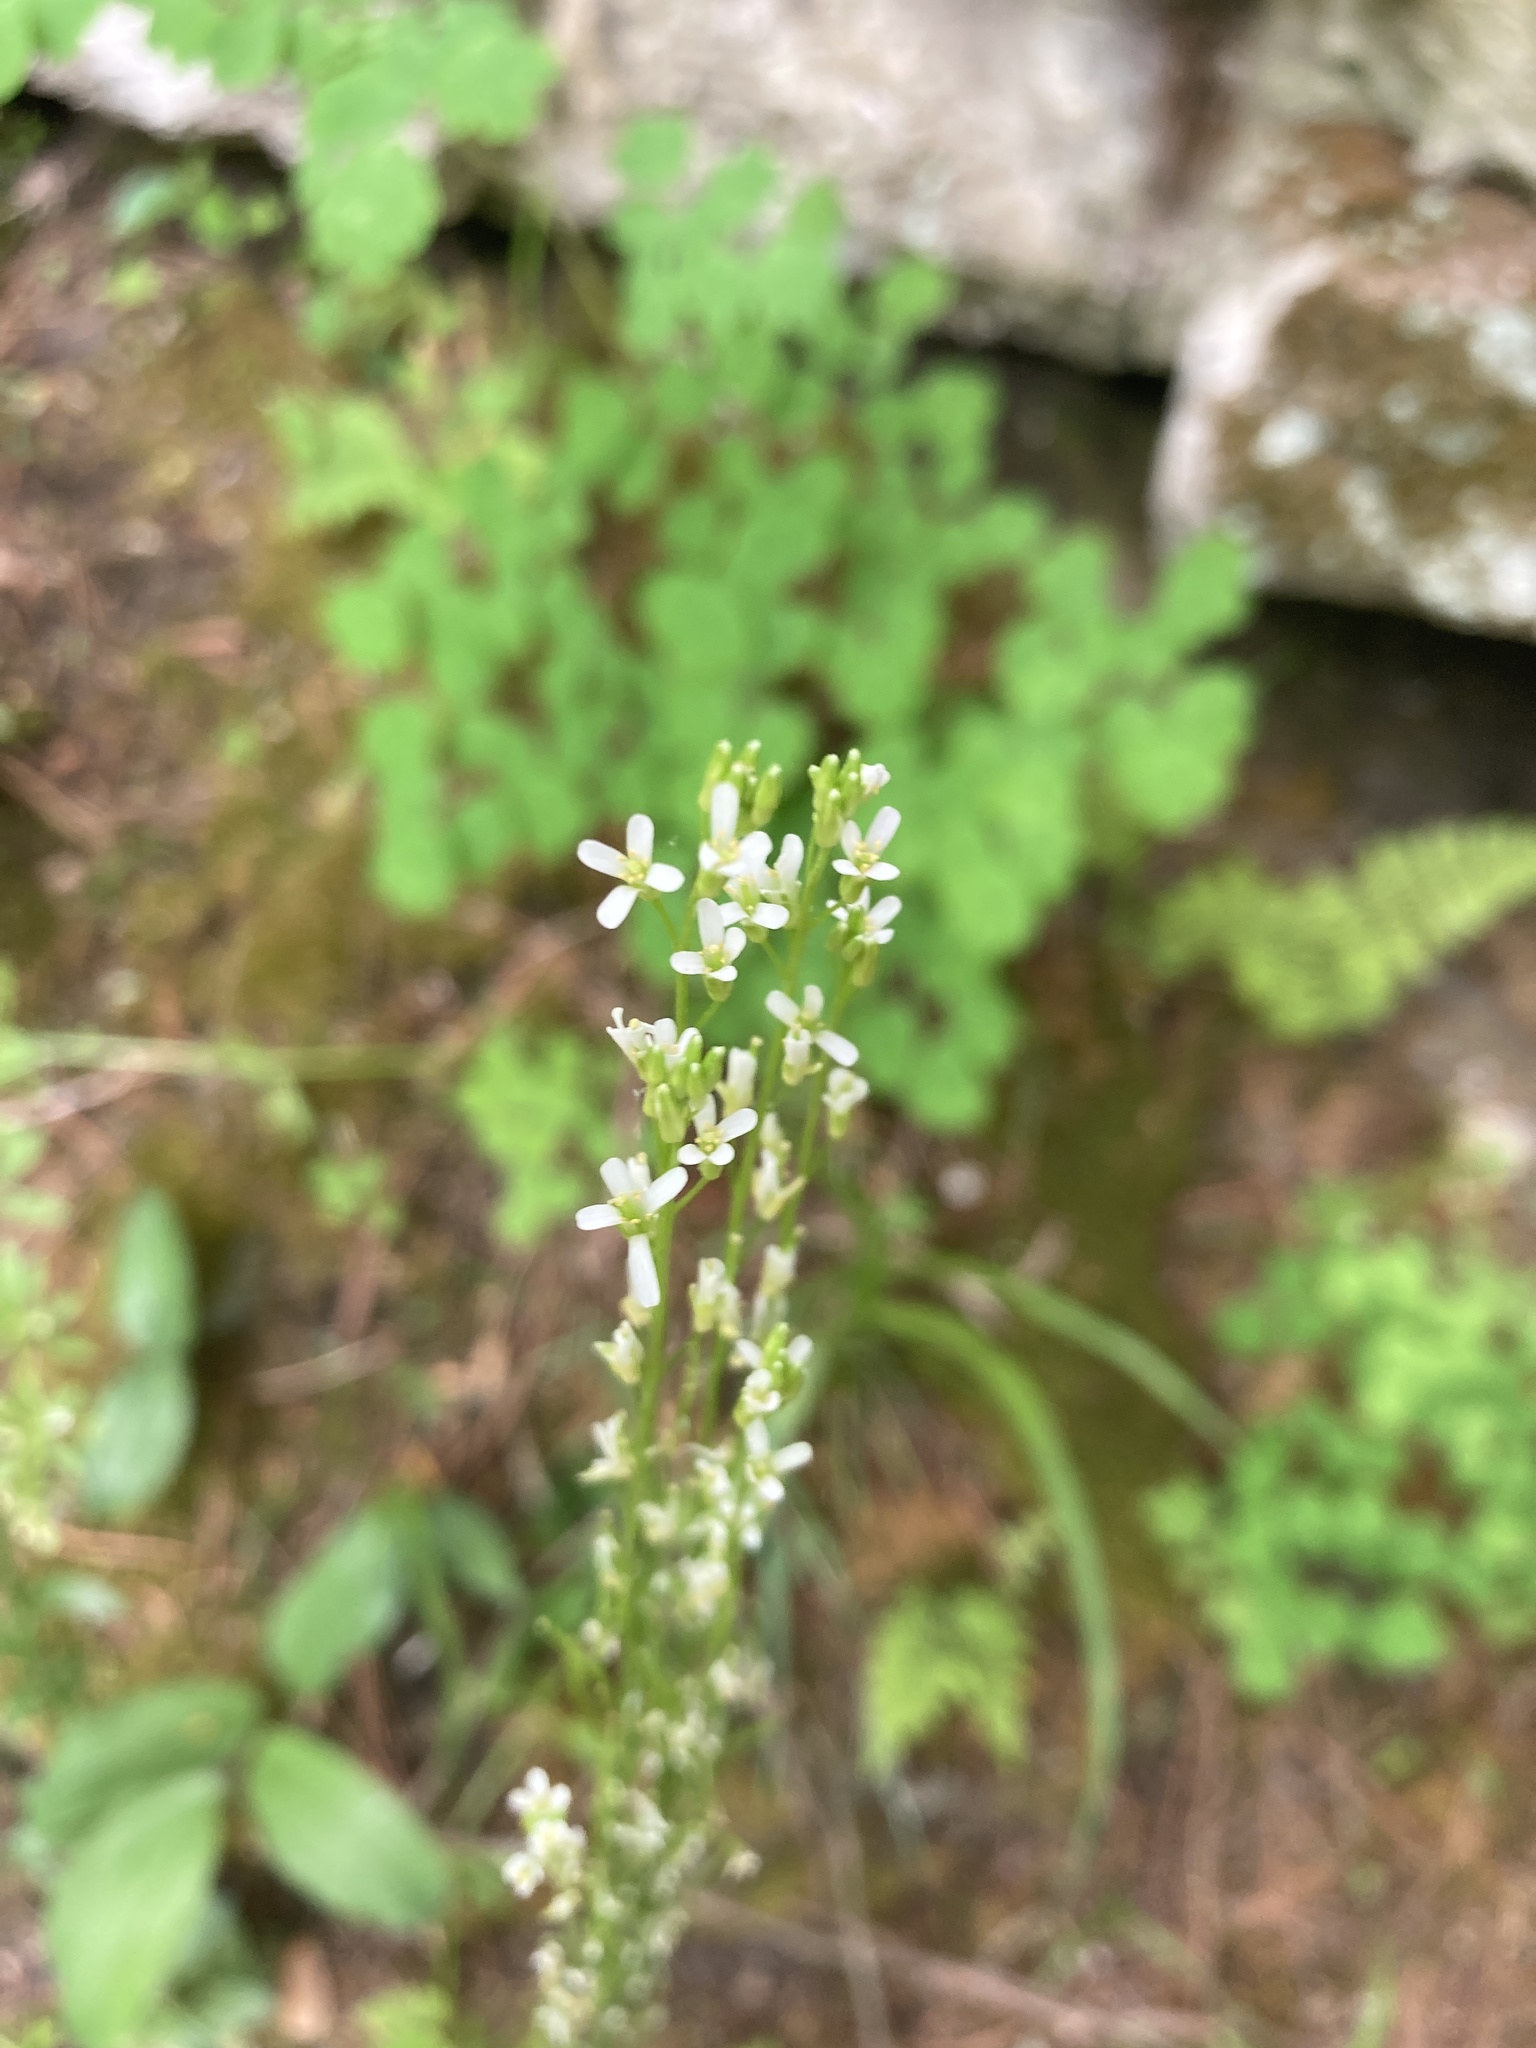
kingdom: Plantae
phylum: Tracheophyta
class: Magnoliopsida
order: Brassicales
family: Brassicaceae
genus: Turritis
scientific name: Turritis glabra
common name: Tower rockcress
